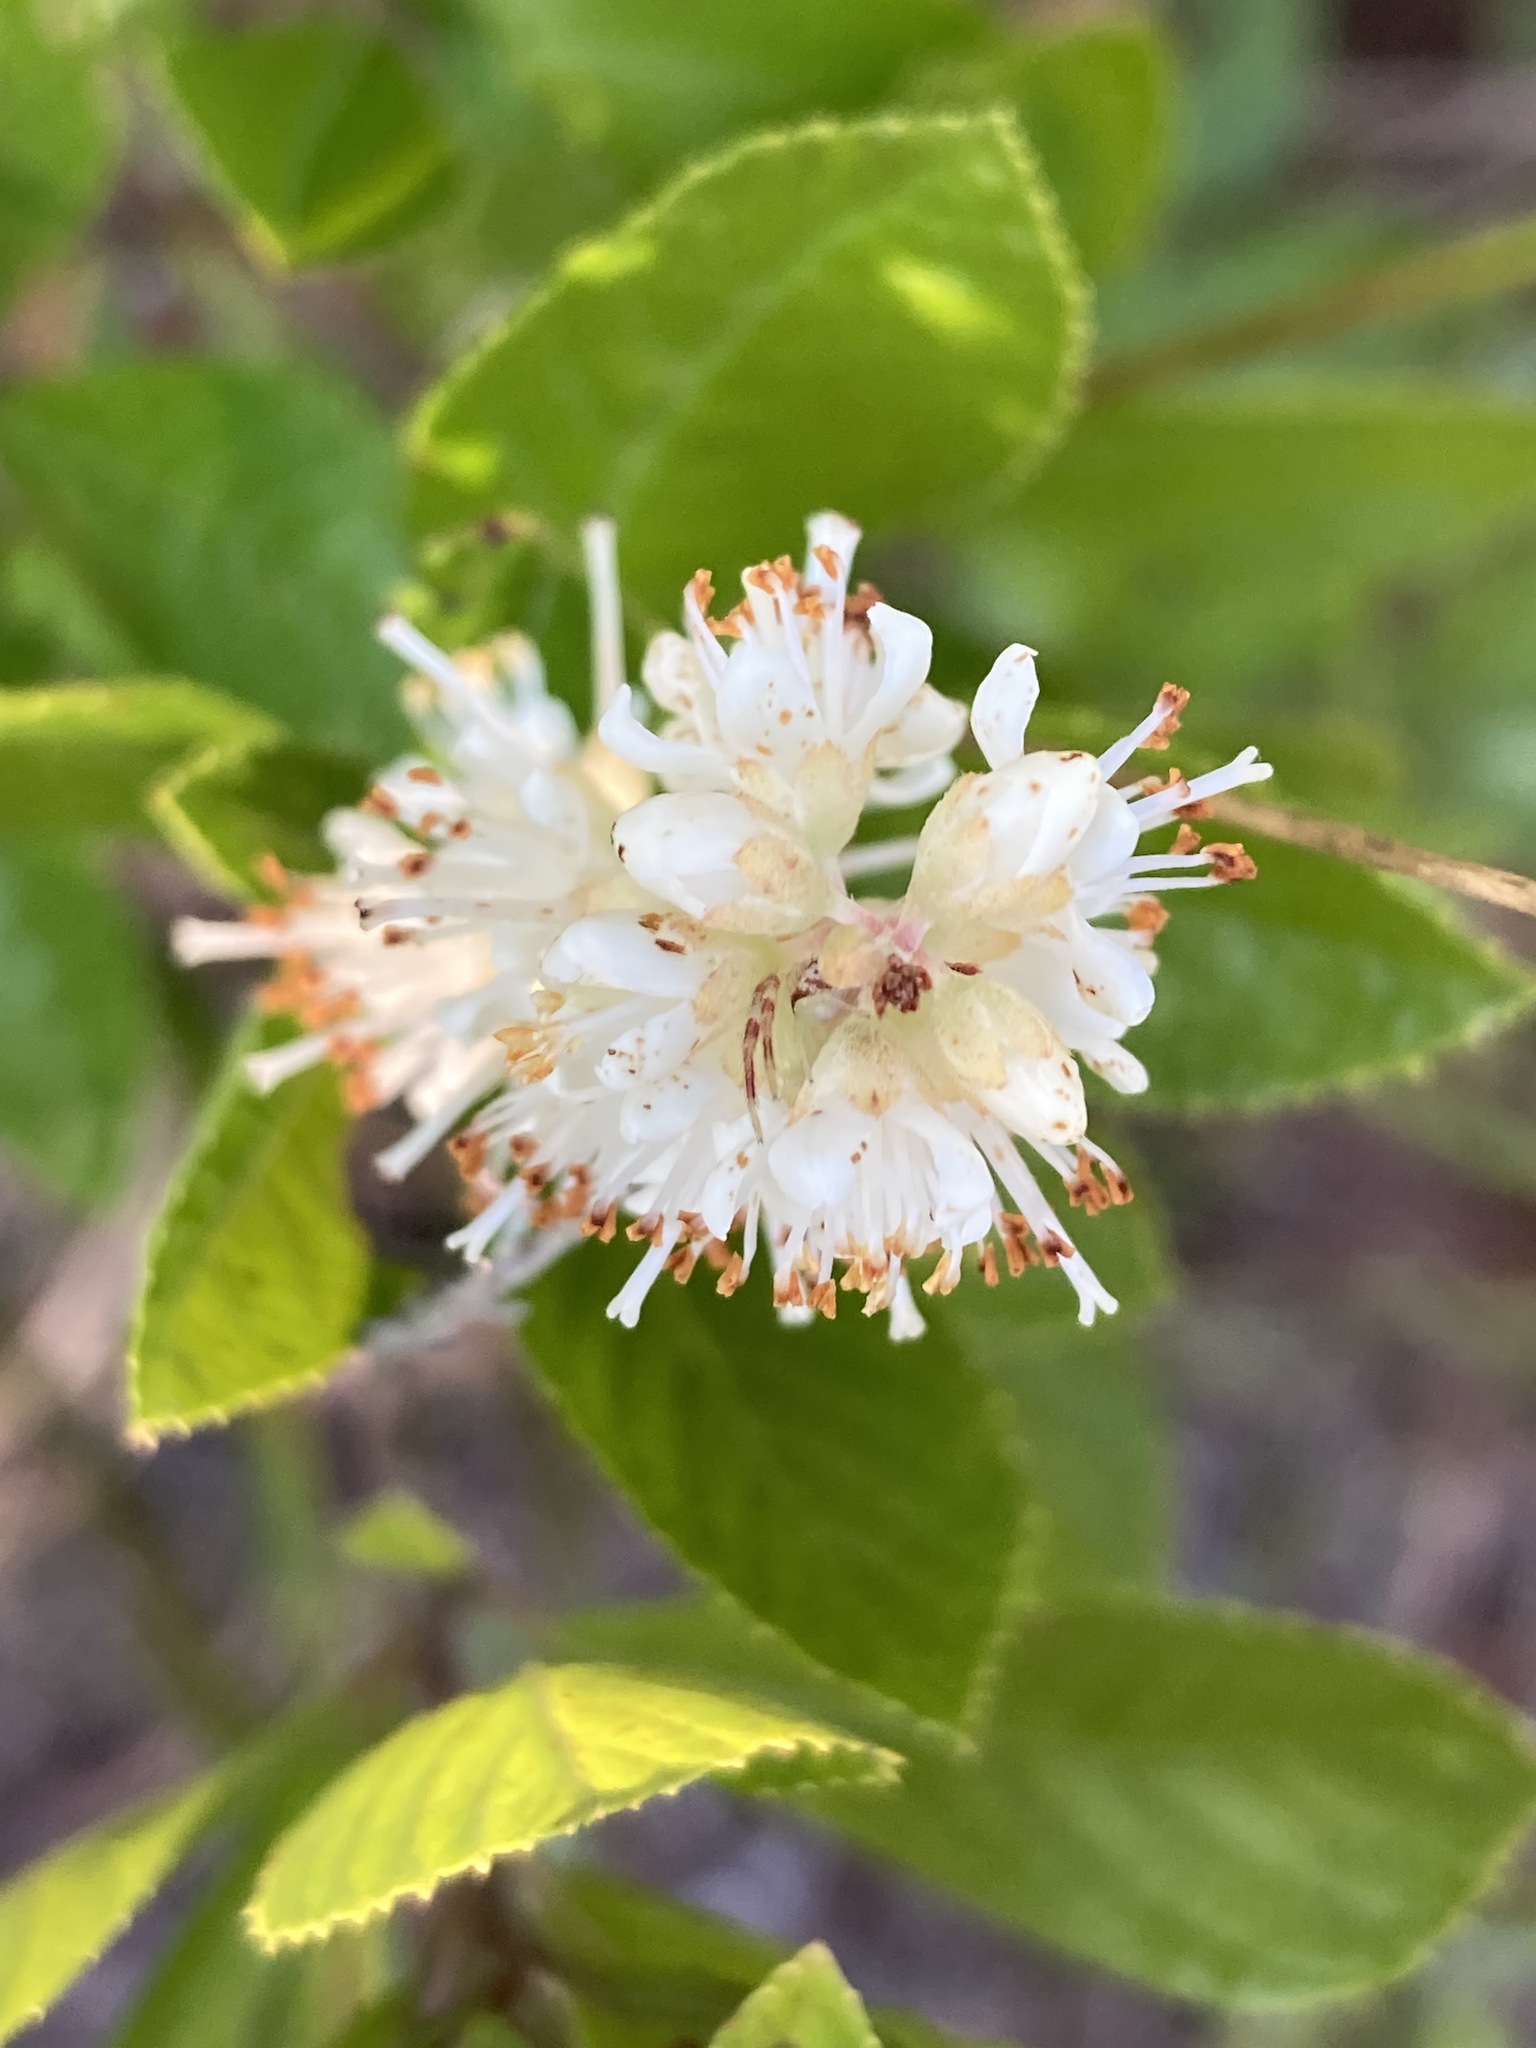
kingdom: Plantae
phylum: Tracheophyta
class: Magnoliopsida
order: Ericales
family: Clethraceae
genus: Clethra
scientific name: Clethra alnifolia
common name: Sweet pepperbush
